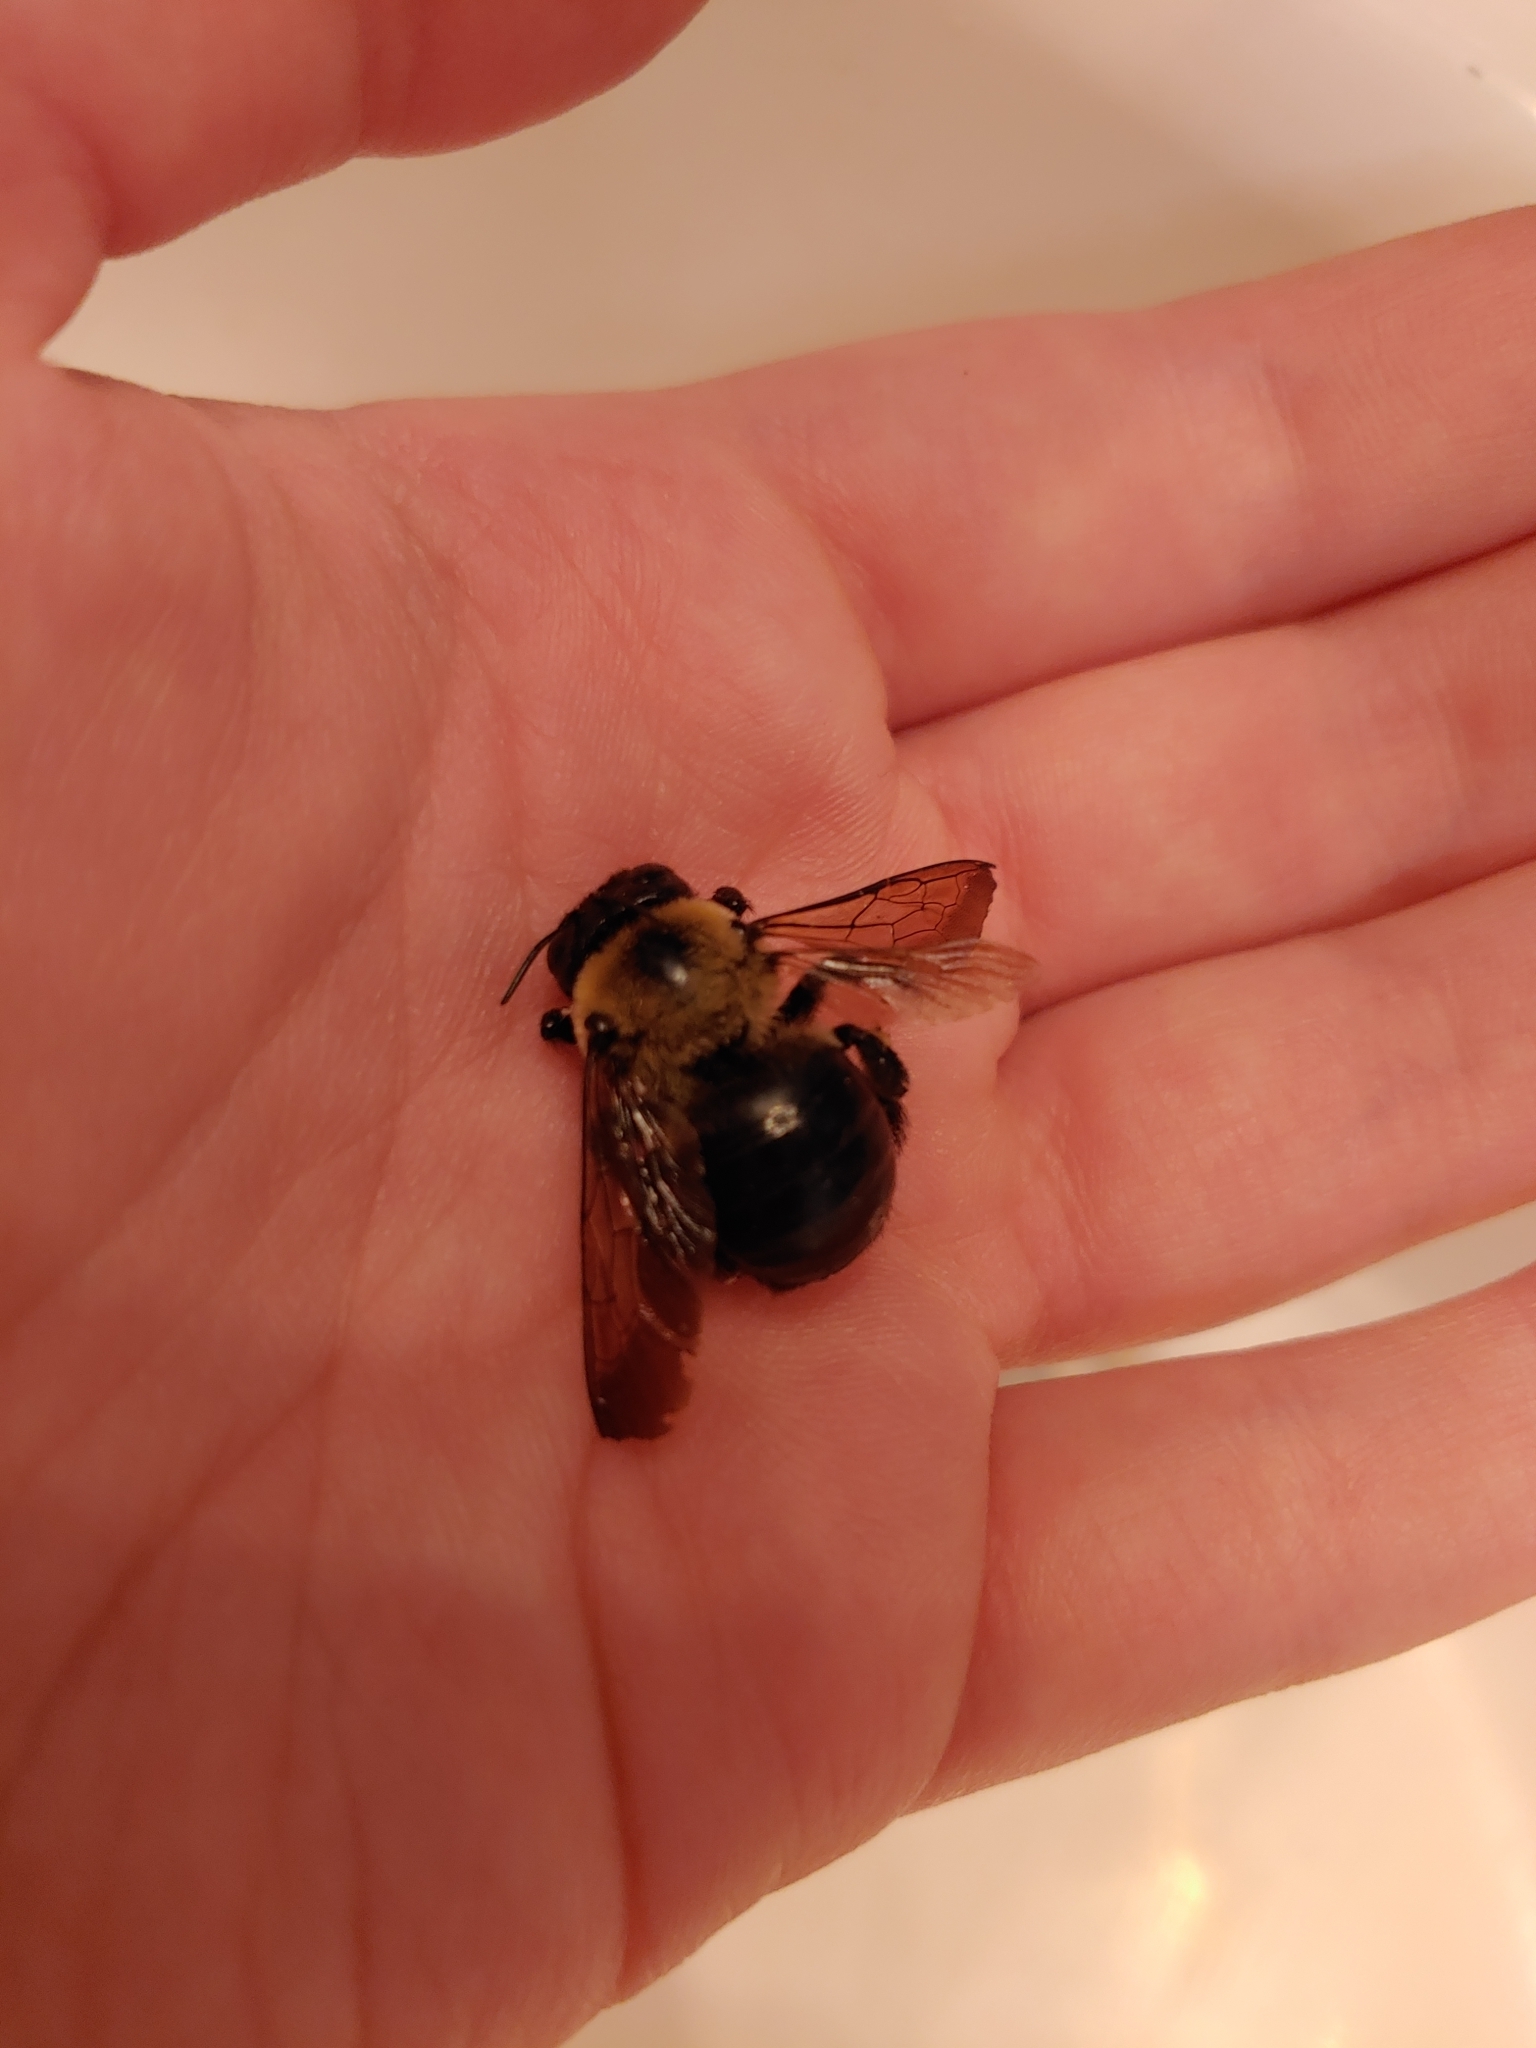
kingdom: Animalia
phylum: Arthropoda
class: Insecta
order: Hymenoptera
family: Apidae
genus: Xylocopa
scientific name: Xylocopa virginica
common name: Carpenter bee
